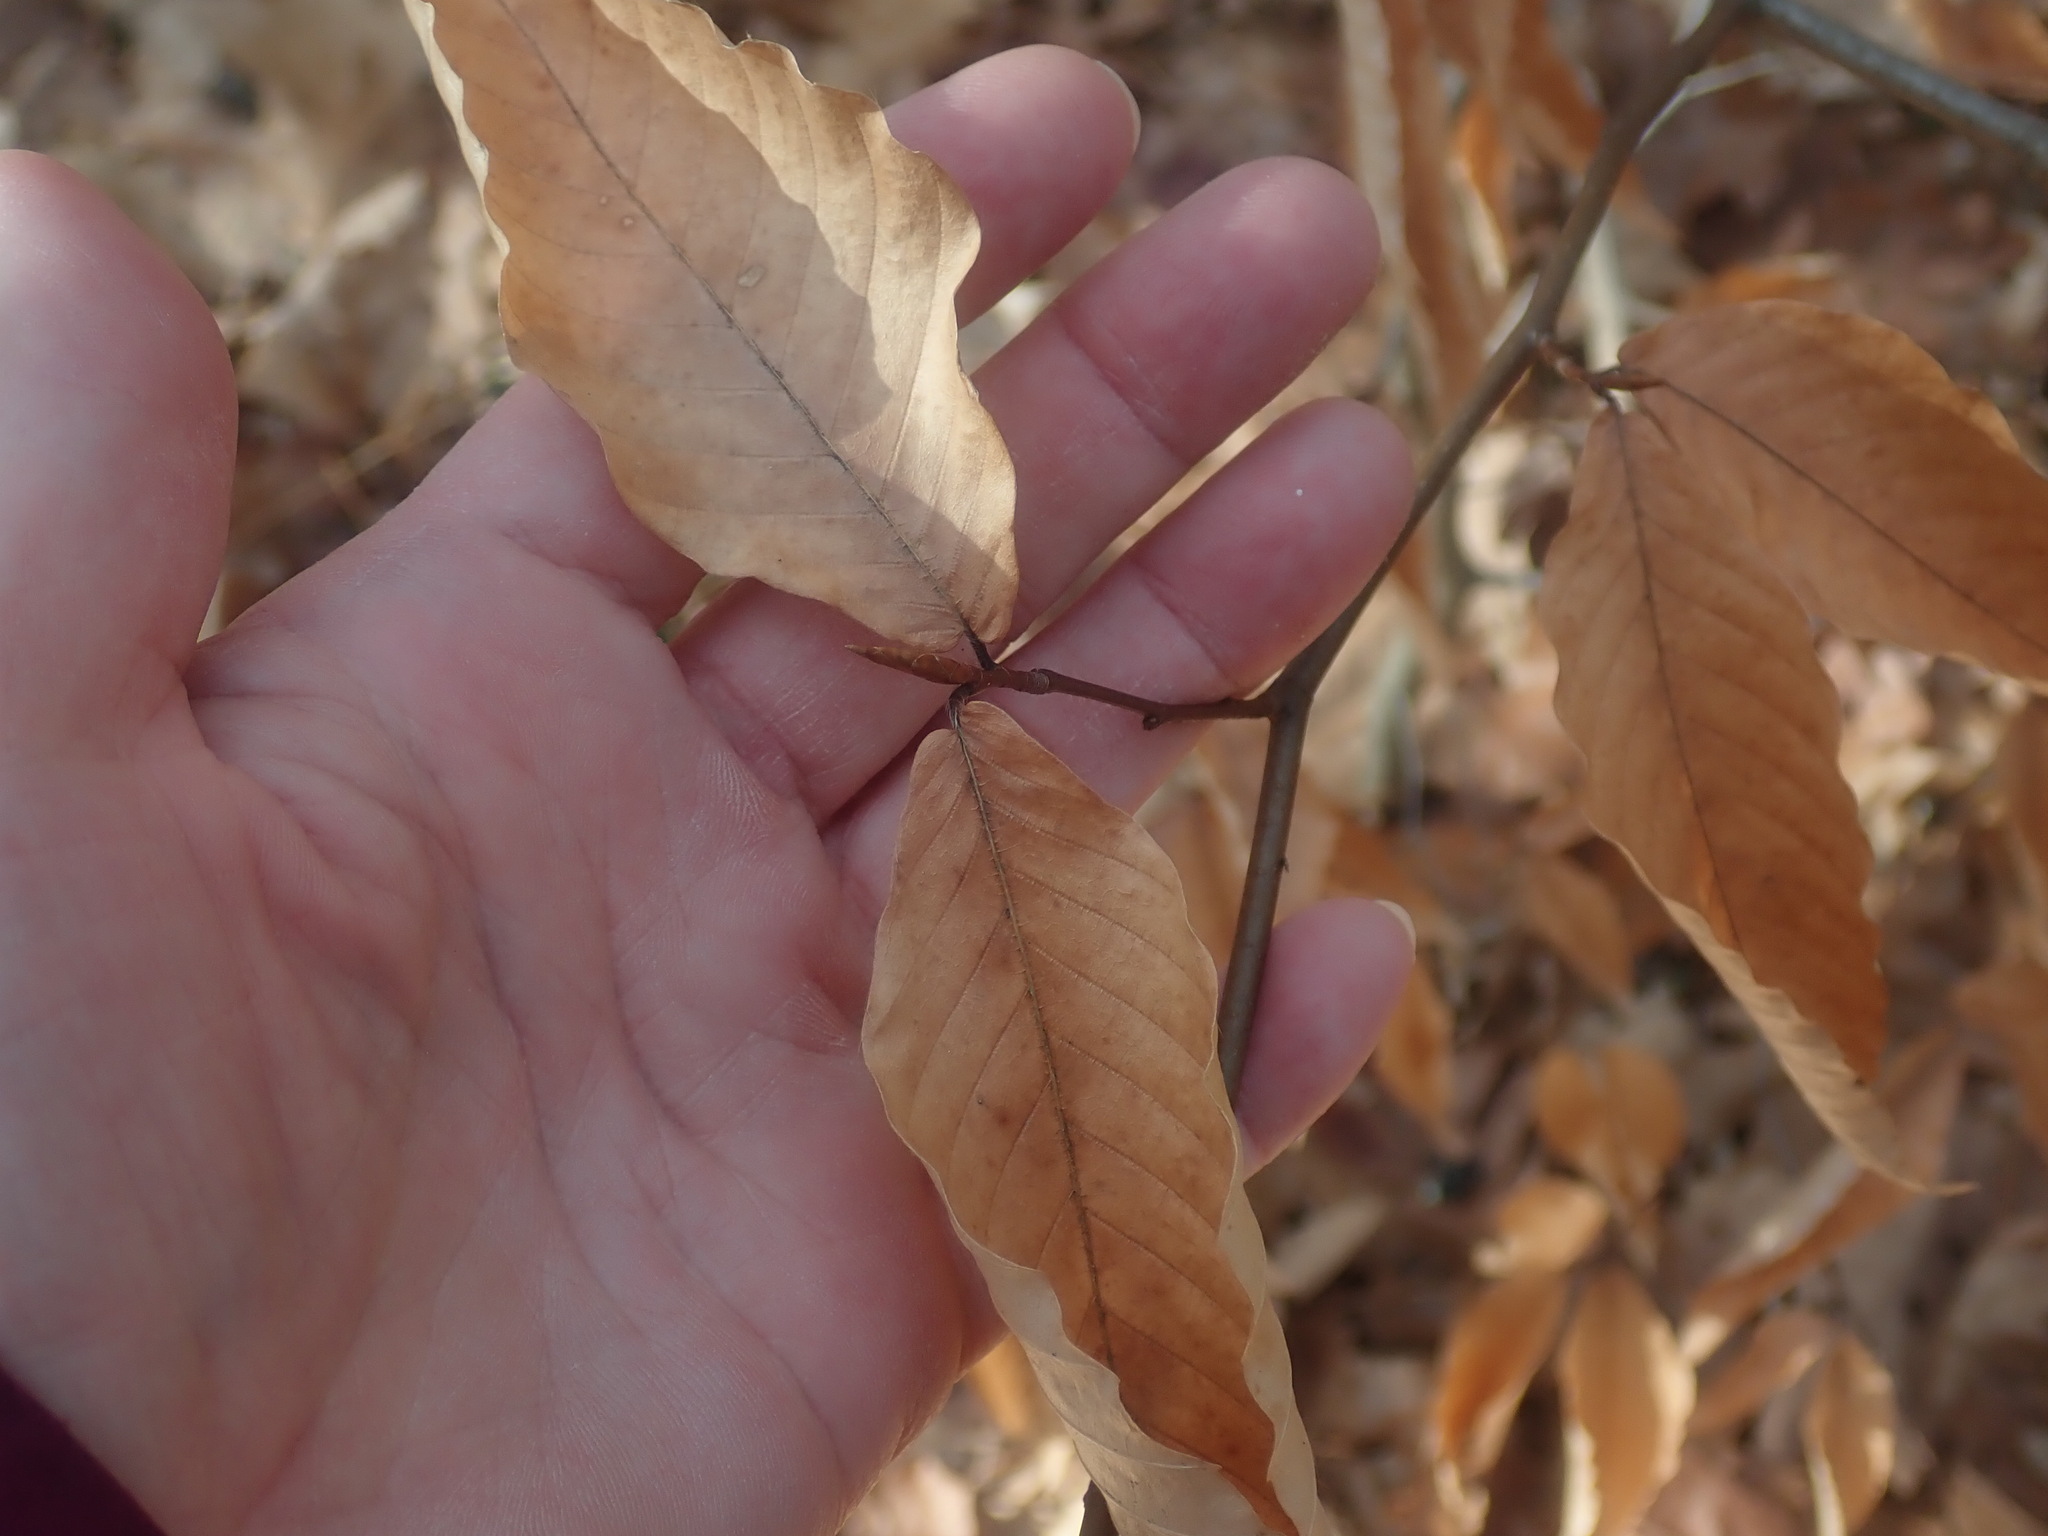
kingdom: Plantae
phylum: Tracheophyta
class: Magnoliopsida
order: Fagales
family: Fagaceae
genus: Fagus
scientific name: Fagus grandifolia
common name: American beech
